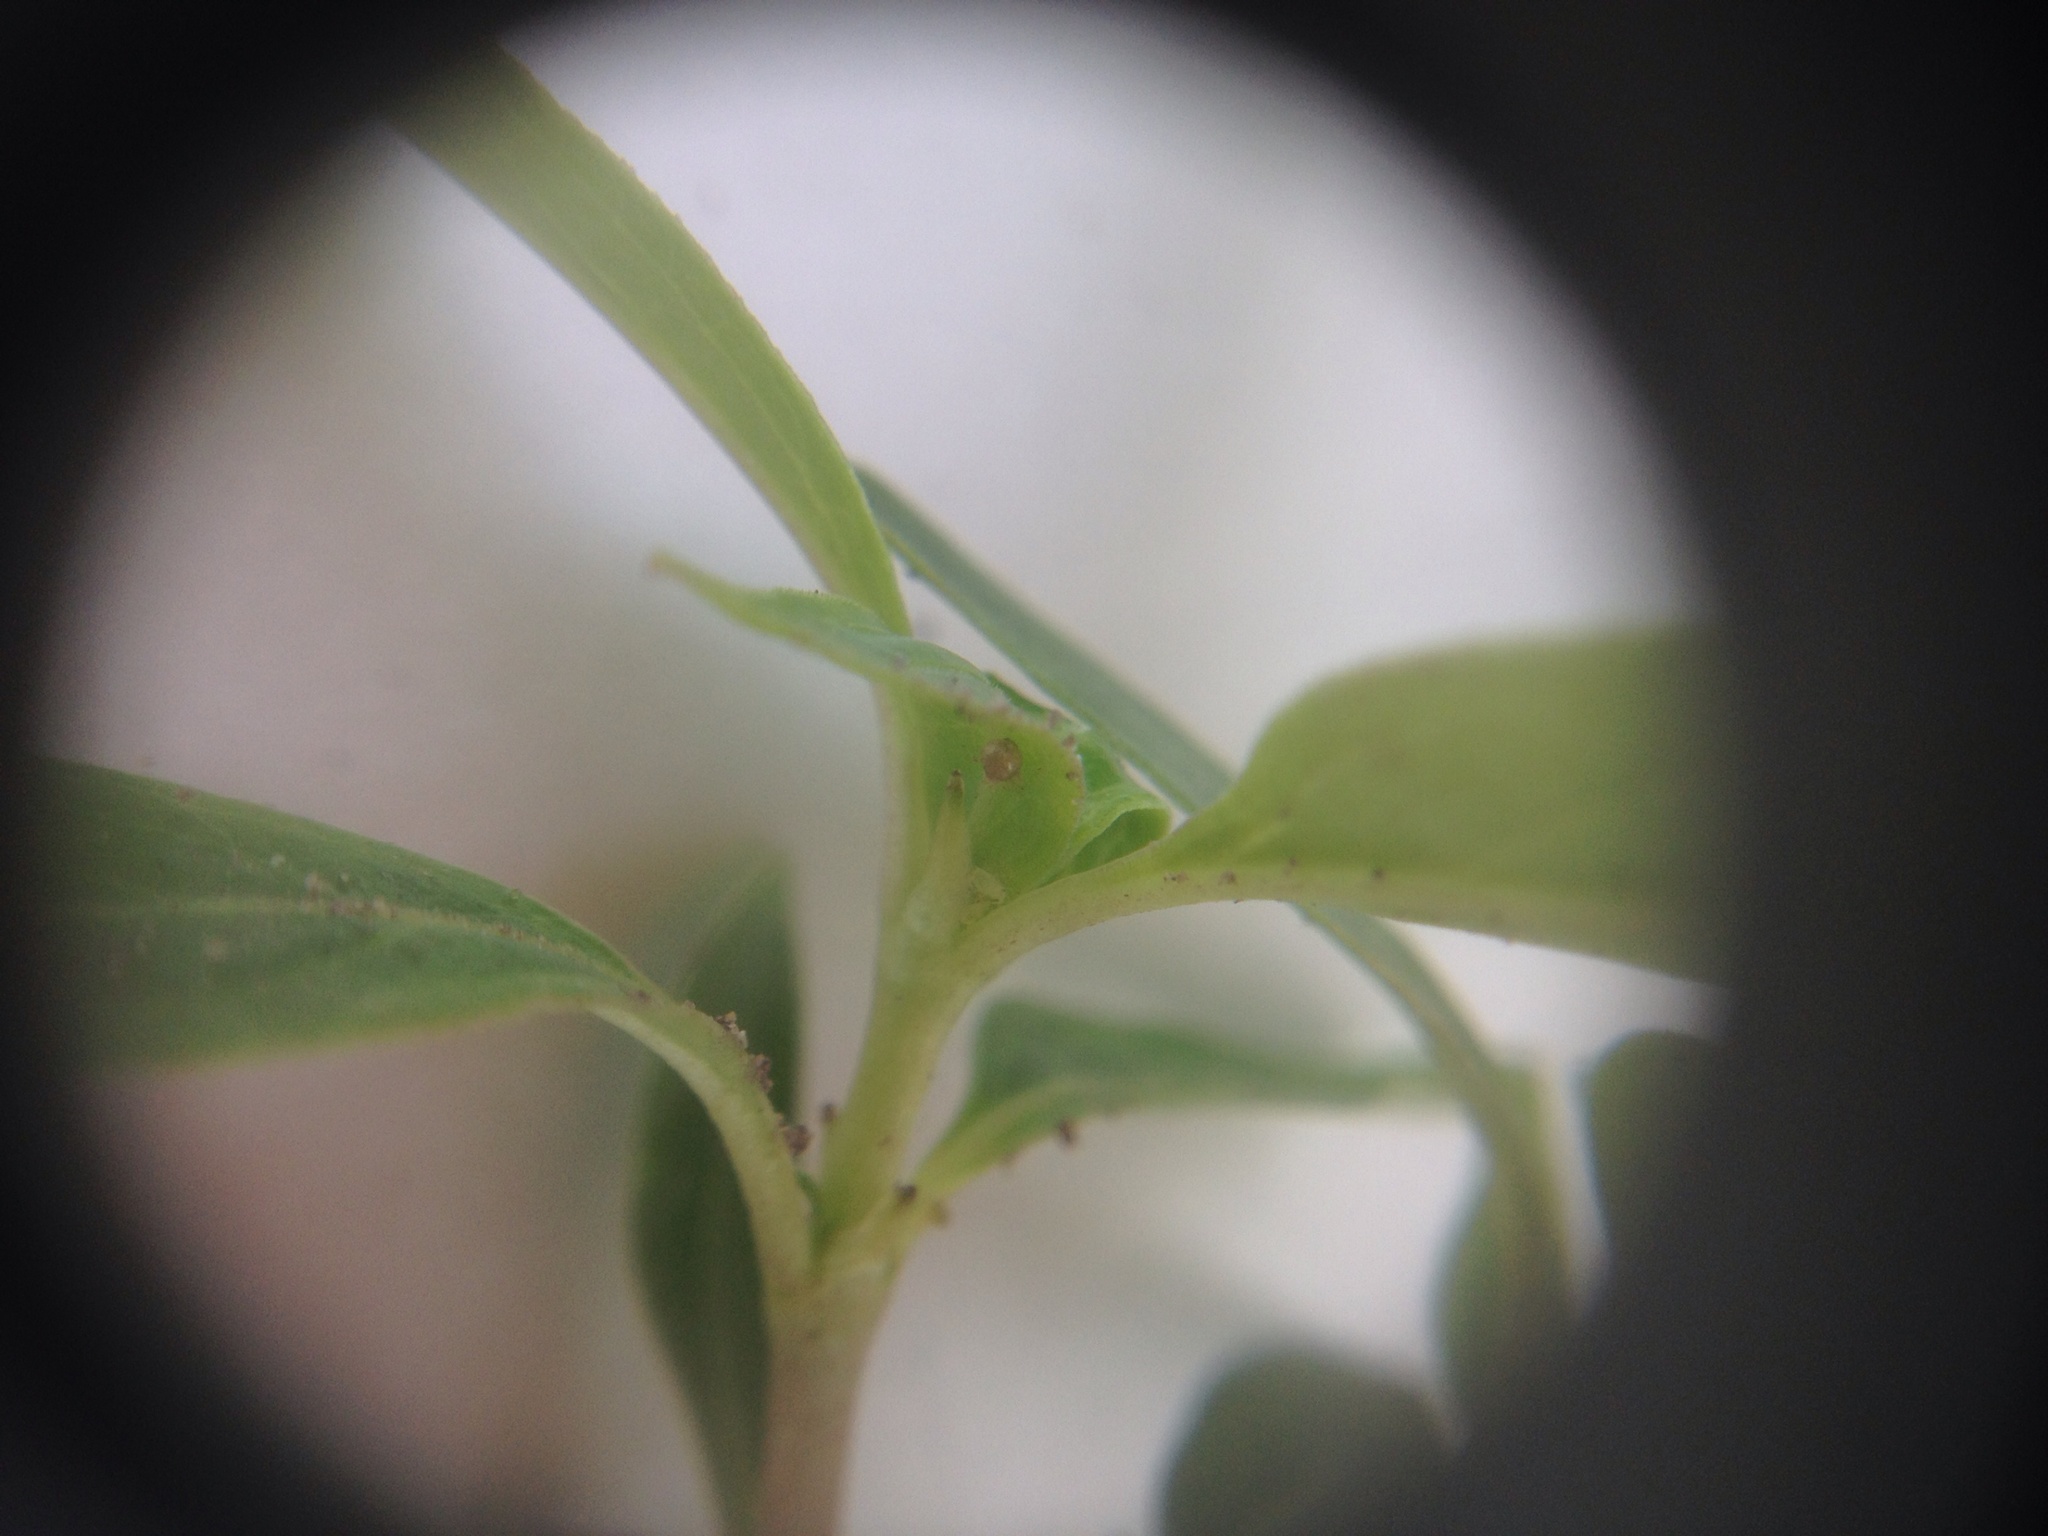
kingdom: Plantae
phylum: Tracheophyta
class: Magnoliopsida
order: Gentianales
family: Rubiaceae
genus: Coprosma
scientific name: Coprosma robusta
